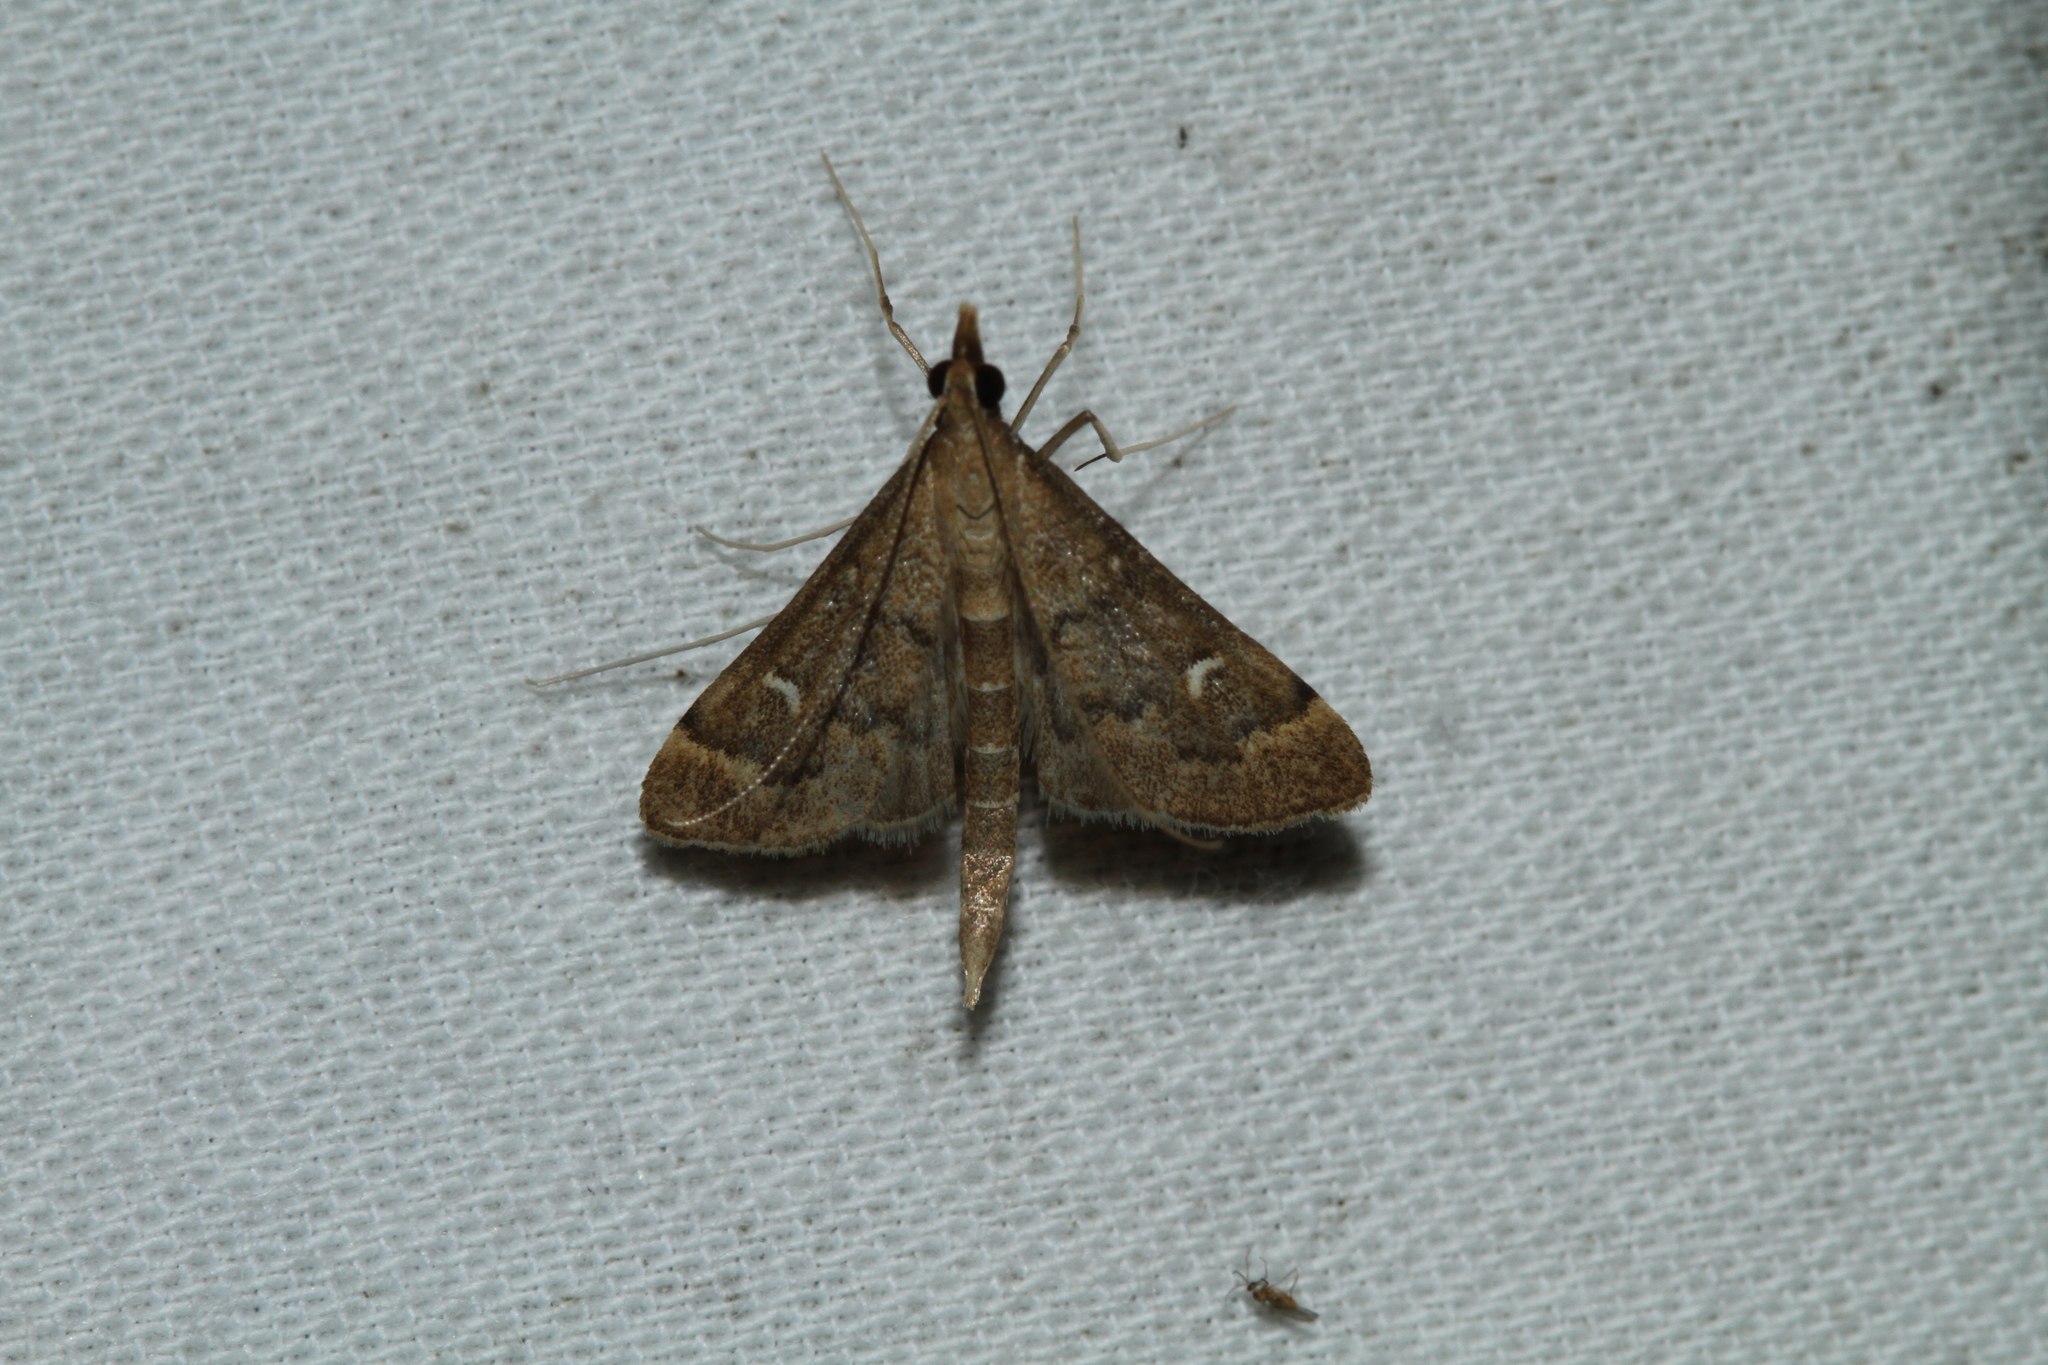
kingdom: Animalia
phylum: Arthropoda
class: Insecta
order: Lepidoptera
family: Crambidae
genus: Stenia
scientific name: Stenia Dolicharthria punctalis
